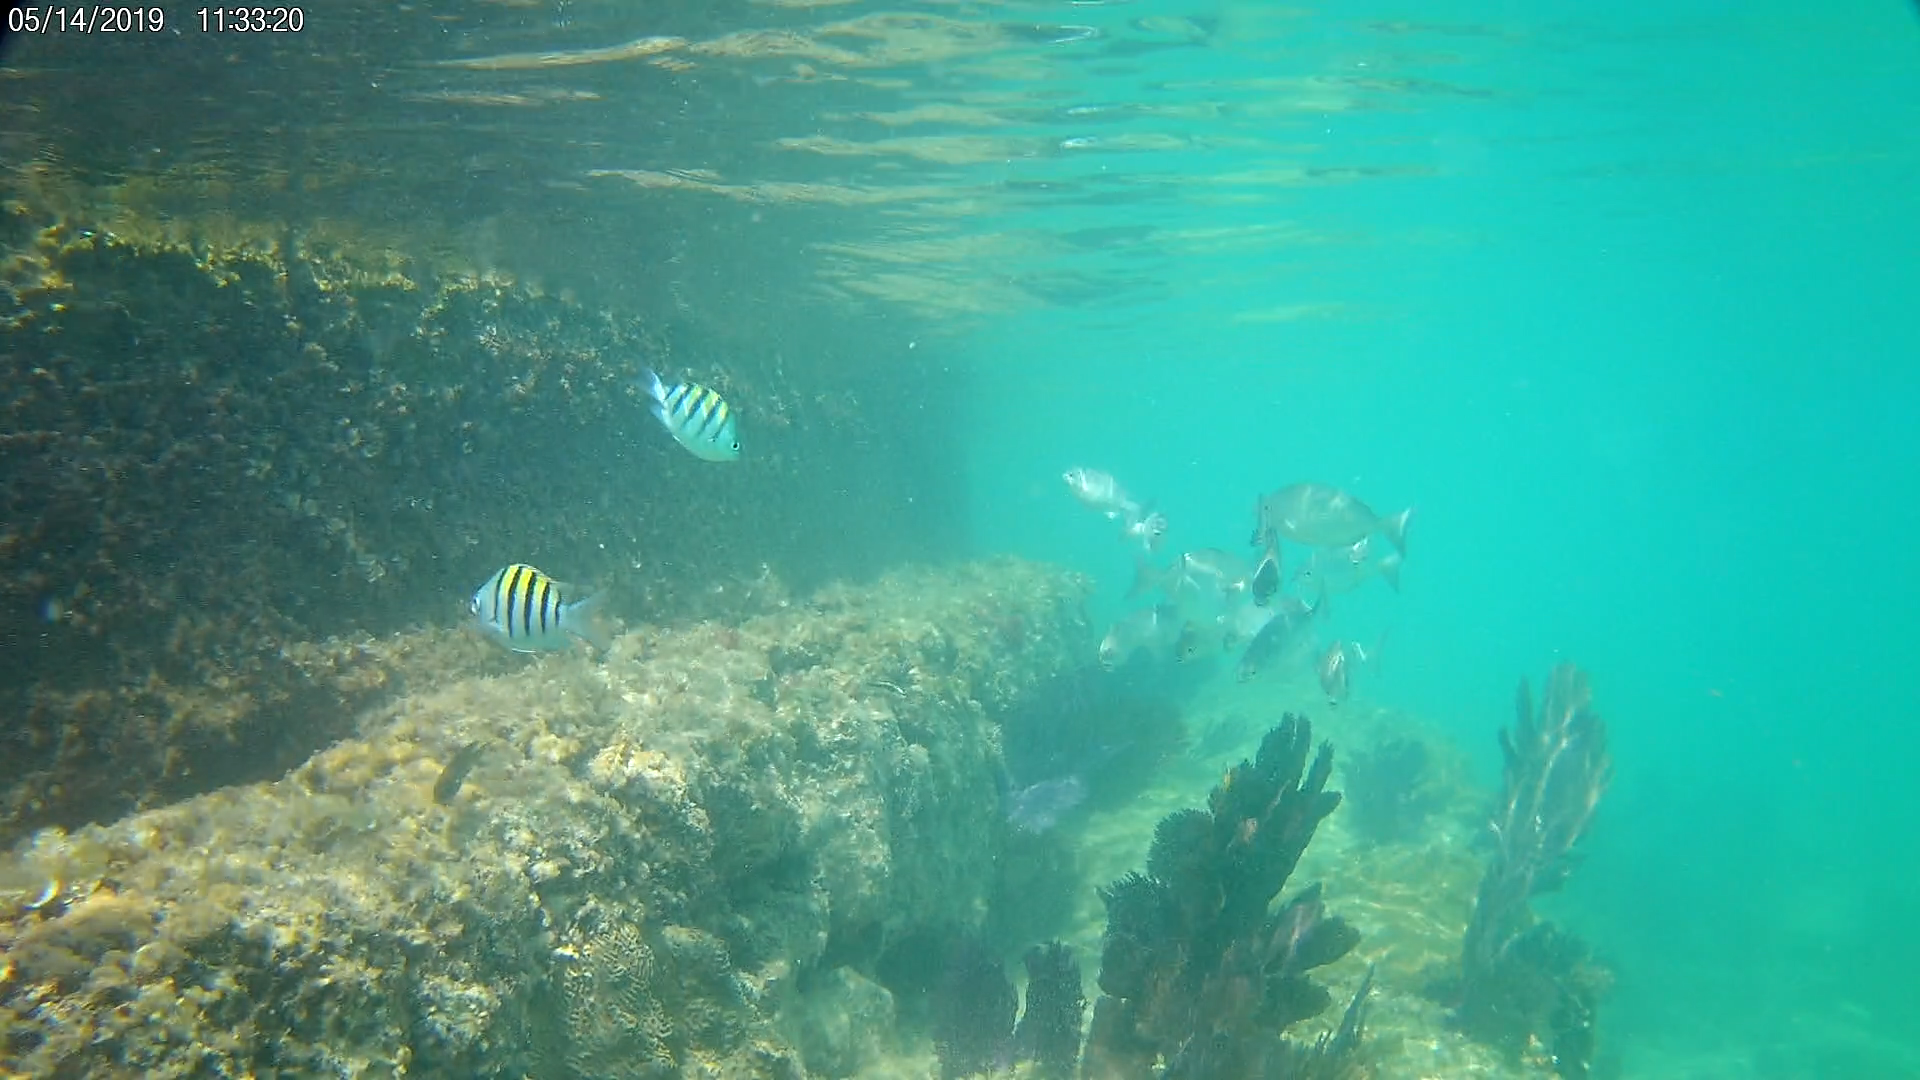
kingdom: Animalia
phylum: Chordata
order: Perciformes
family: Pomacentridae
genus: Abudefduf
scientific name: Abudefduf saxatilis
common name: Sergeant major
